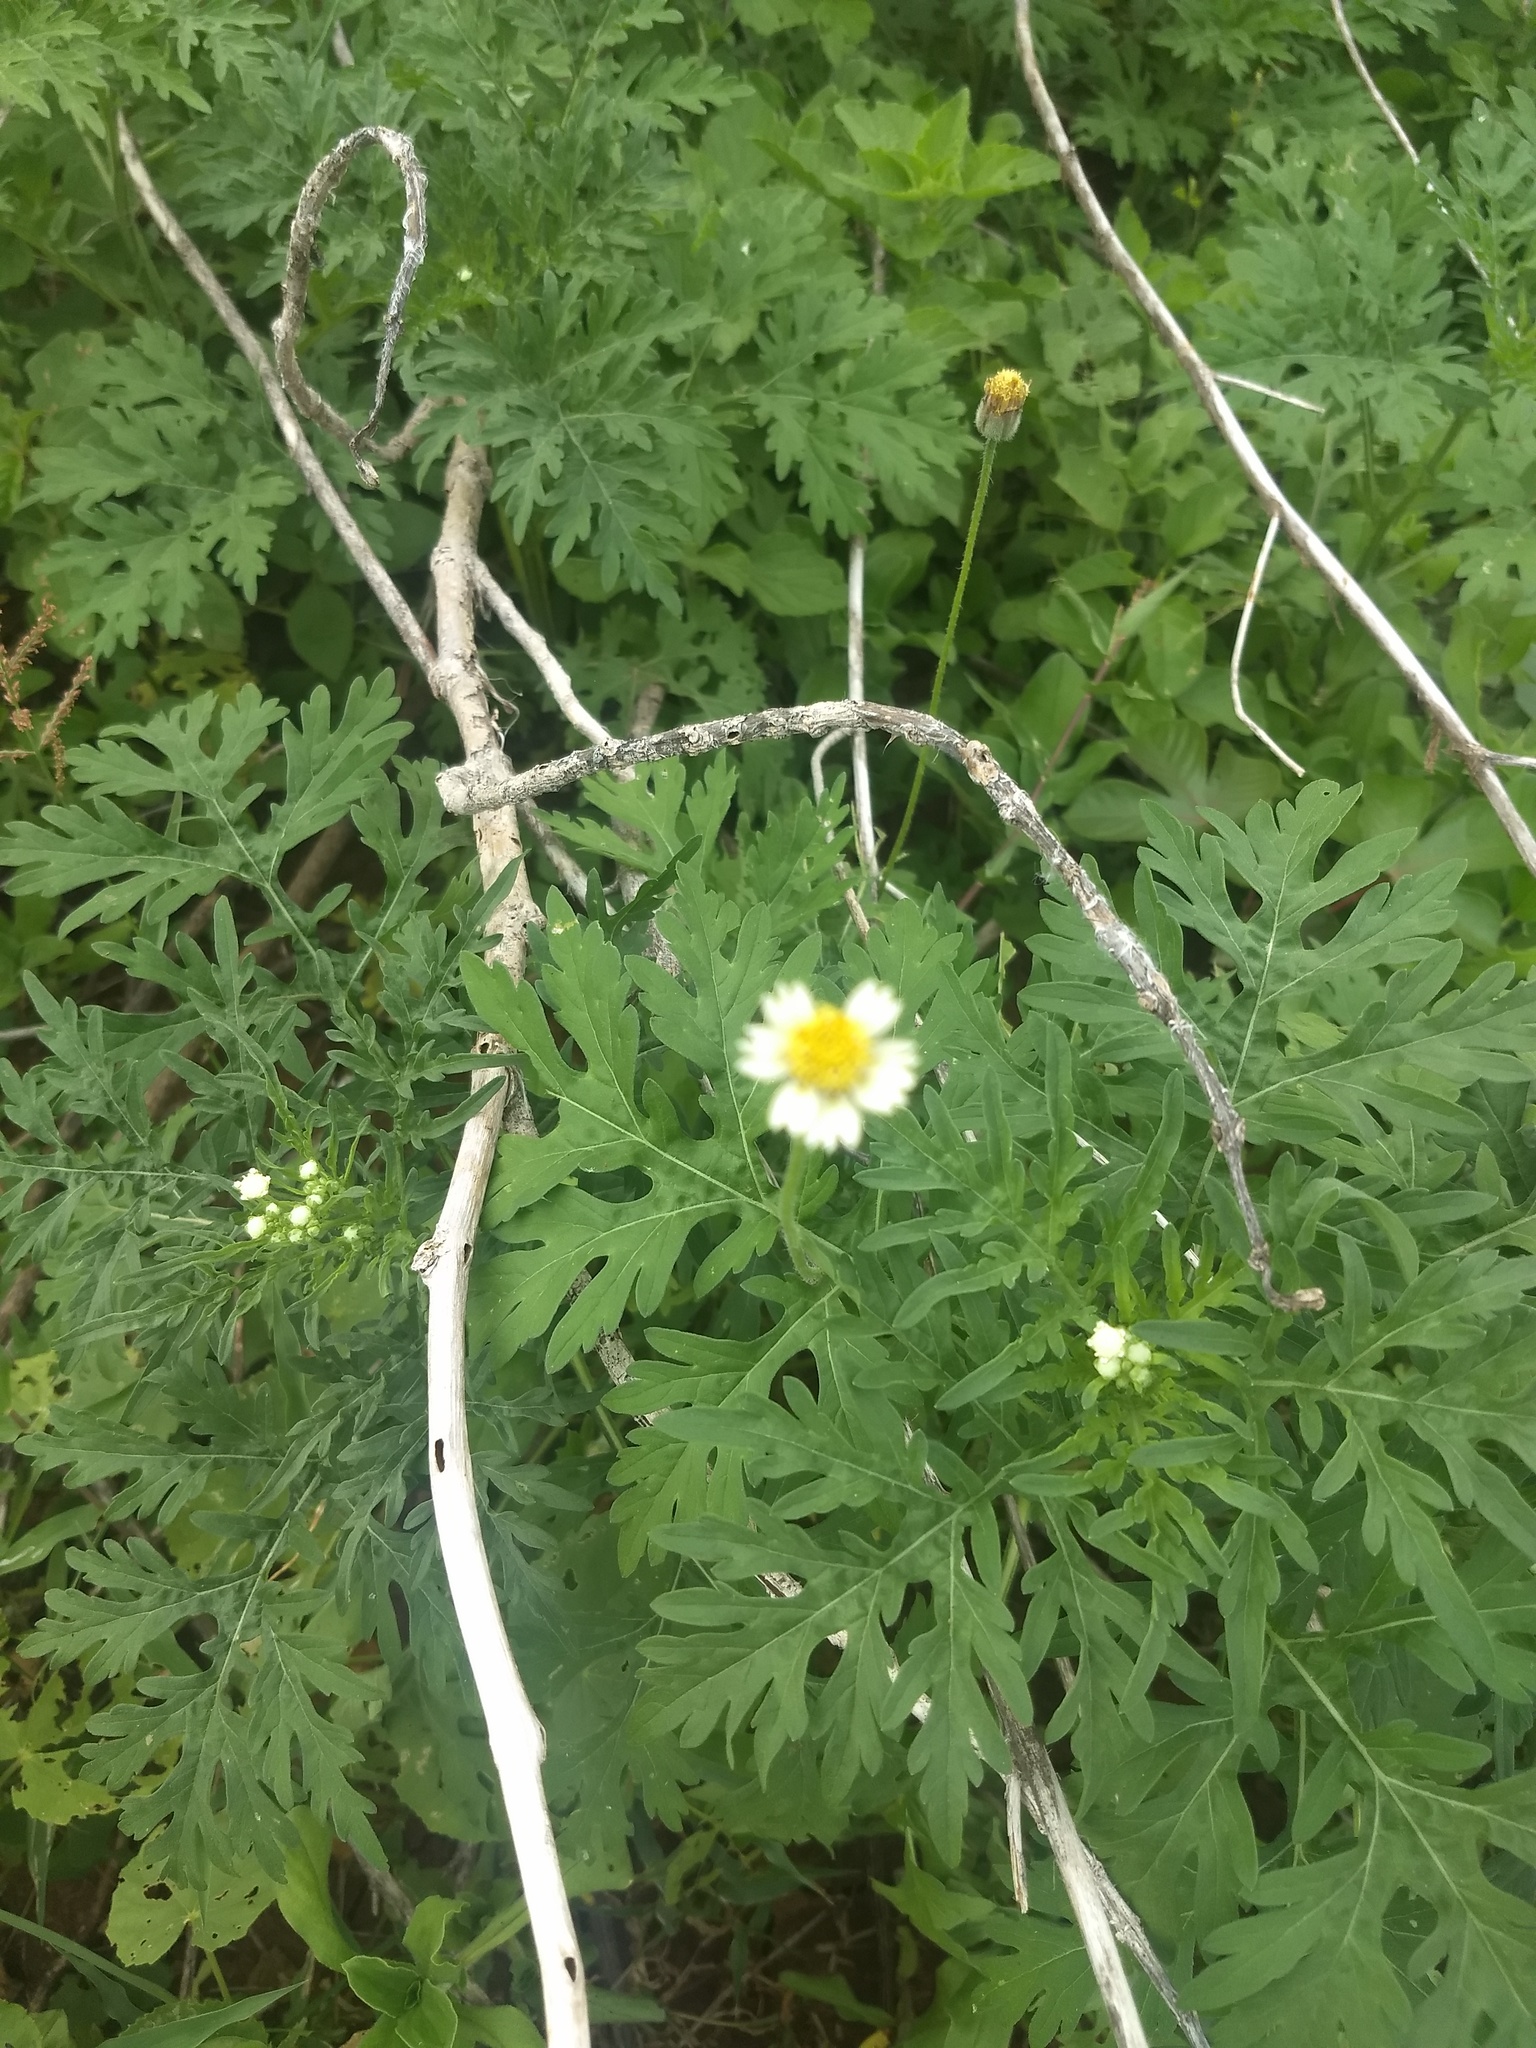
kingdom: Plantae
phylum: Tracheophyta
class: Magnoliopsida
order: Asterales
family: Asteraceae
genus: Tridax
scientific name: Tridax procumbens
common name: Coatbuttons
